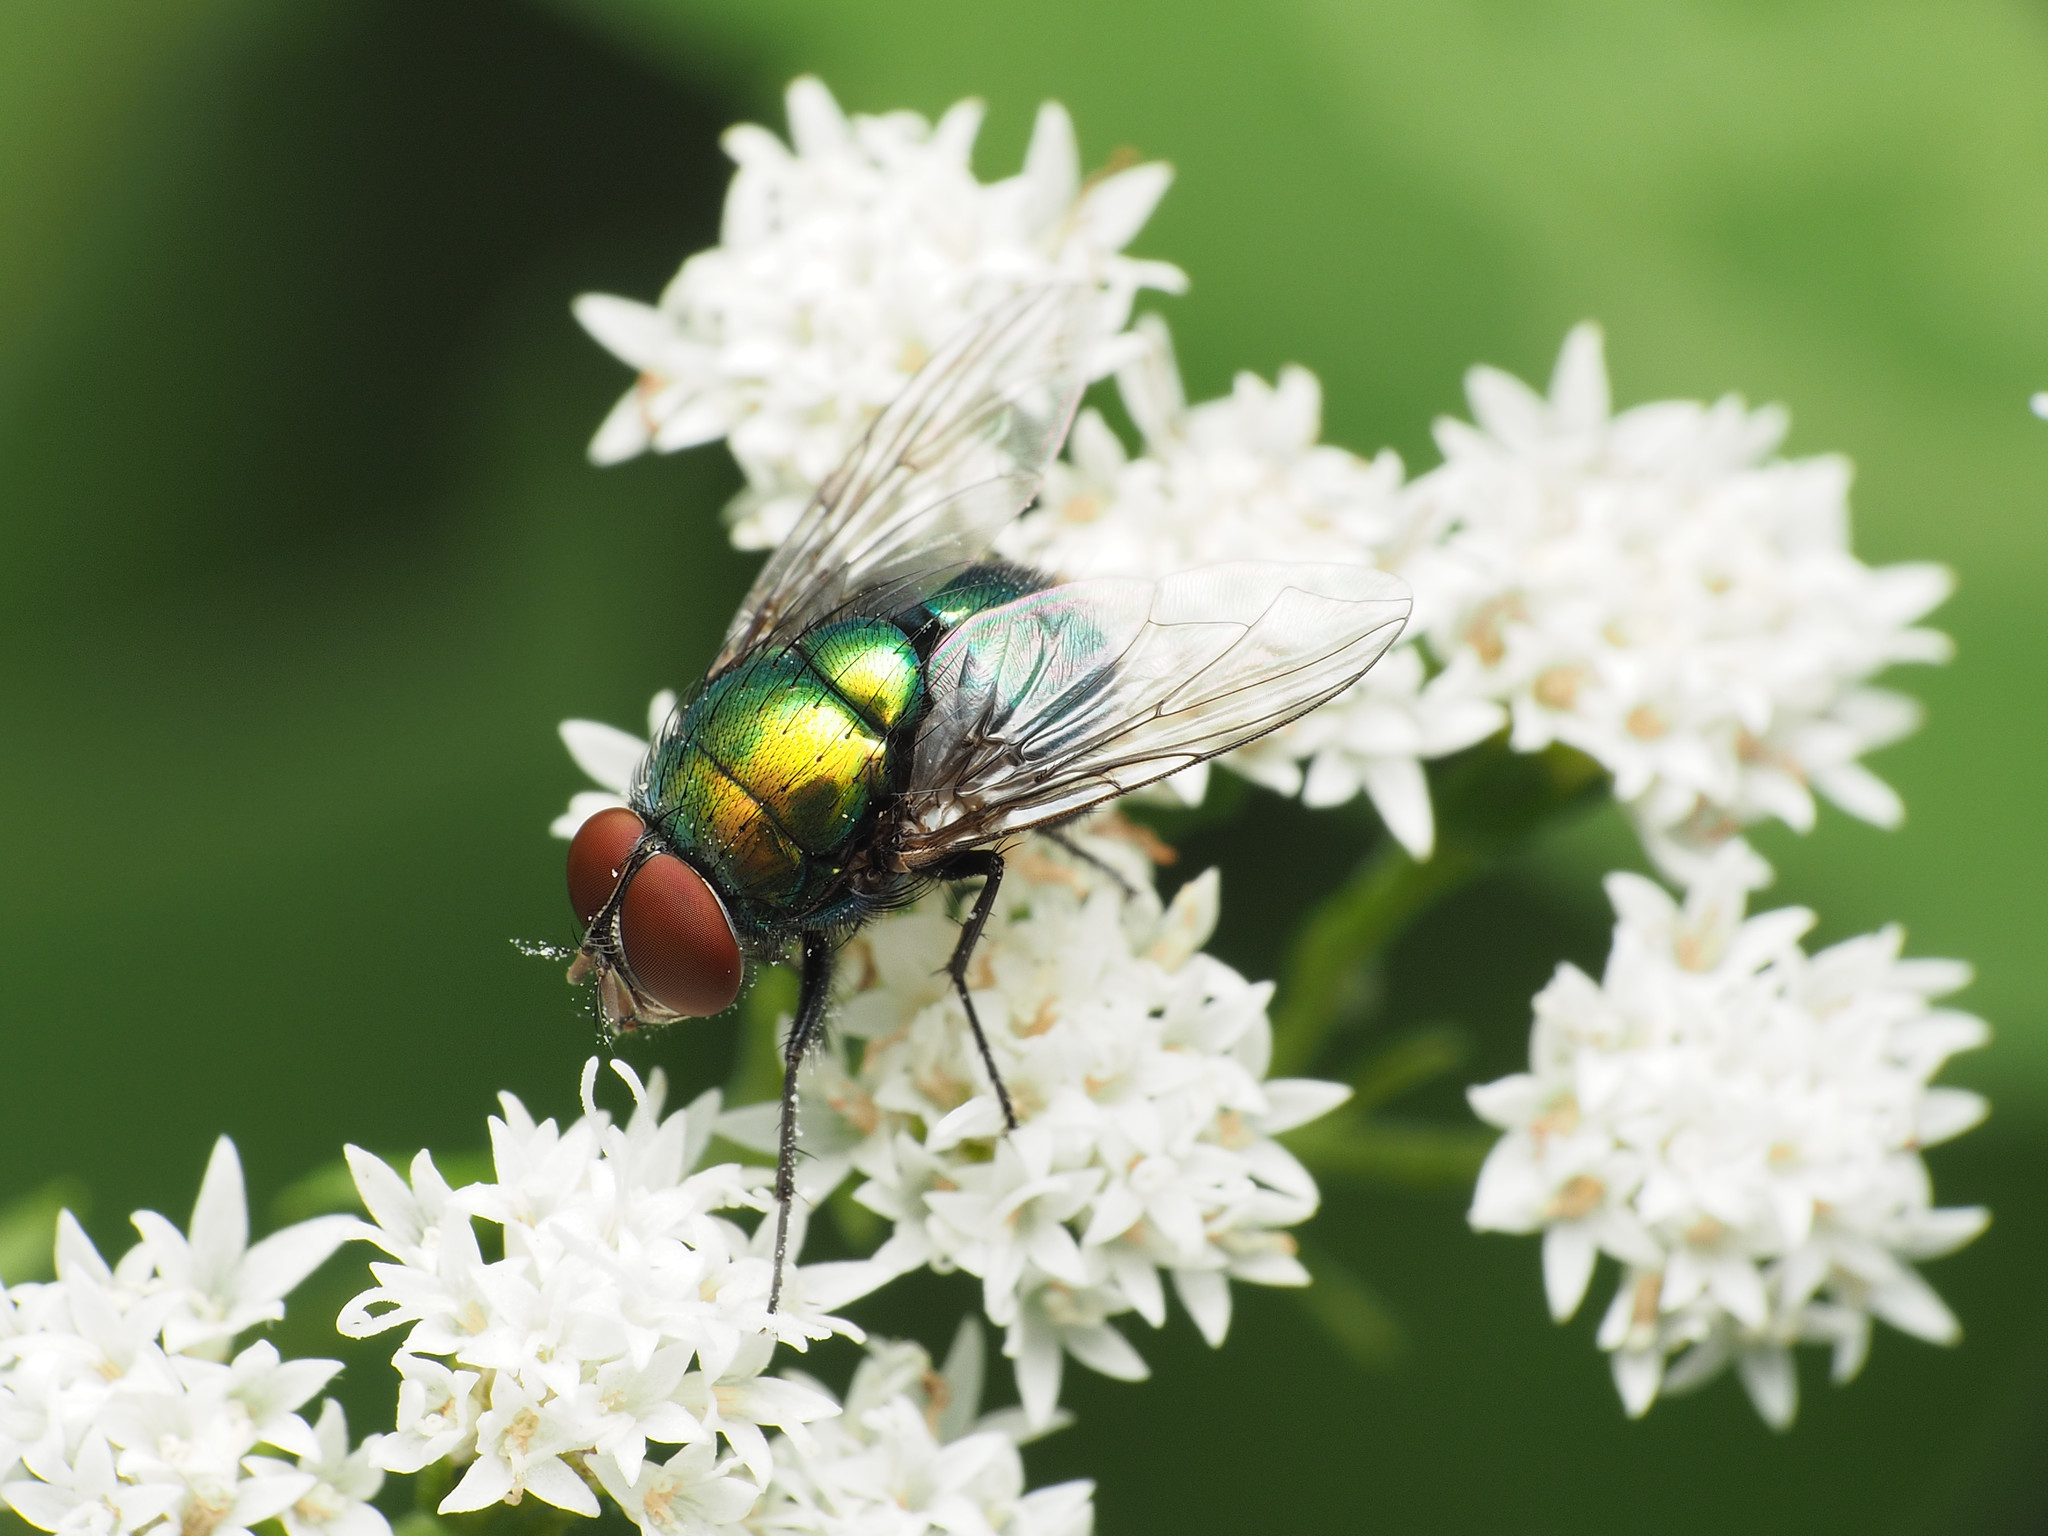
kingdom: Animalia
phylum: Arthropoda
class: Insecta
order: Diptera
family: Calliphoridae
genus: Lucilia
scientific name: Lucilia illustris
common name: Illustrious greenbottle
